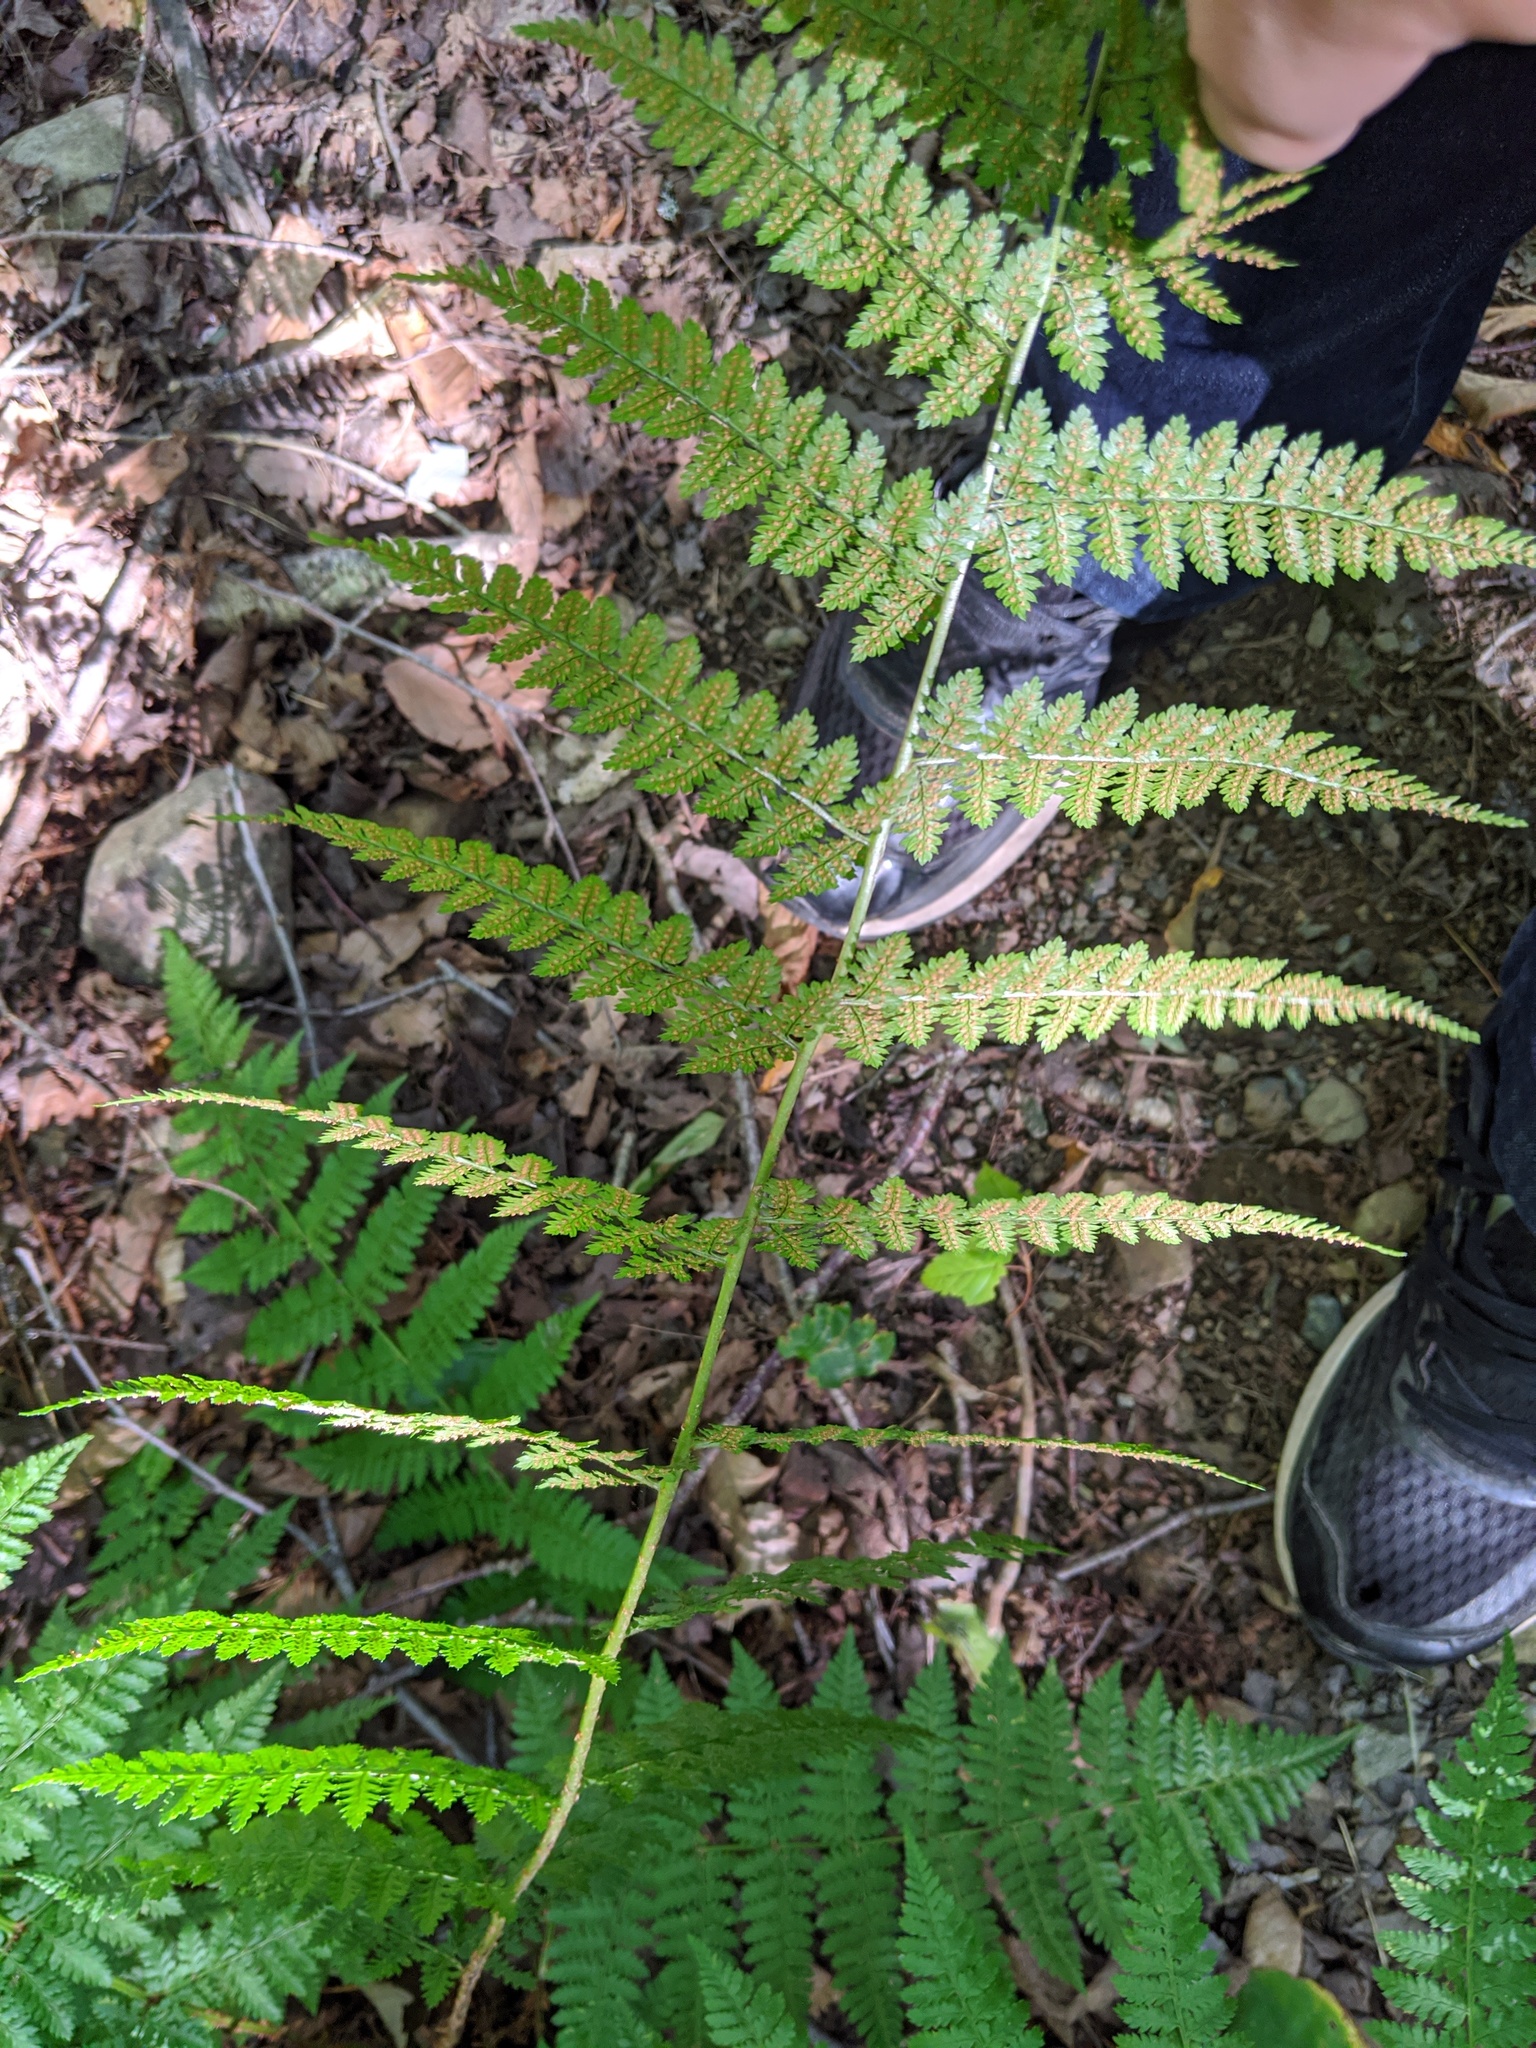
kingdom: Plantae
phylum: Tracheophyta
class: Polypodiopsida
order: Polypodiales
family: Dryopteridaceae
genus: Dryopteris
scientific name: Dryopteris intermedia
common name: Evergreen wood fern
